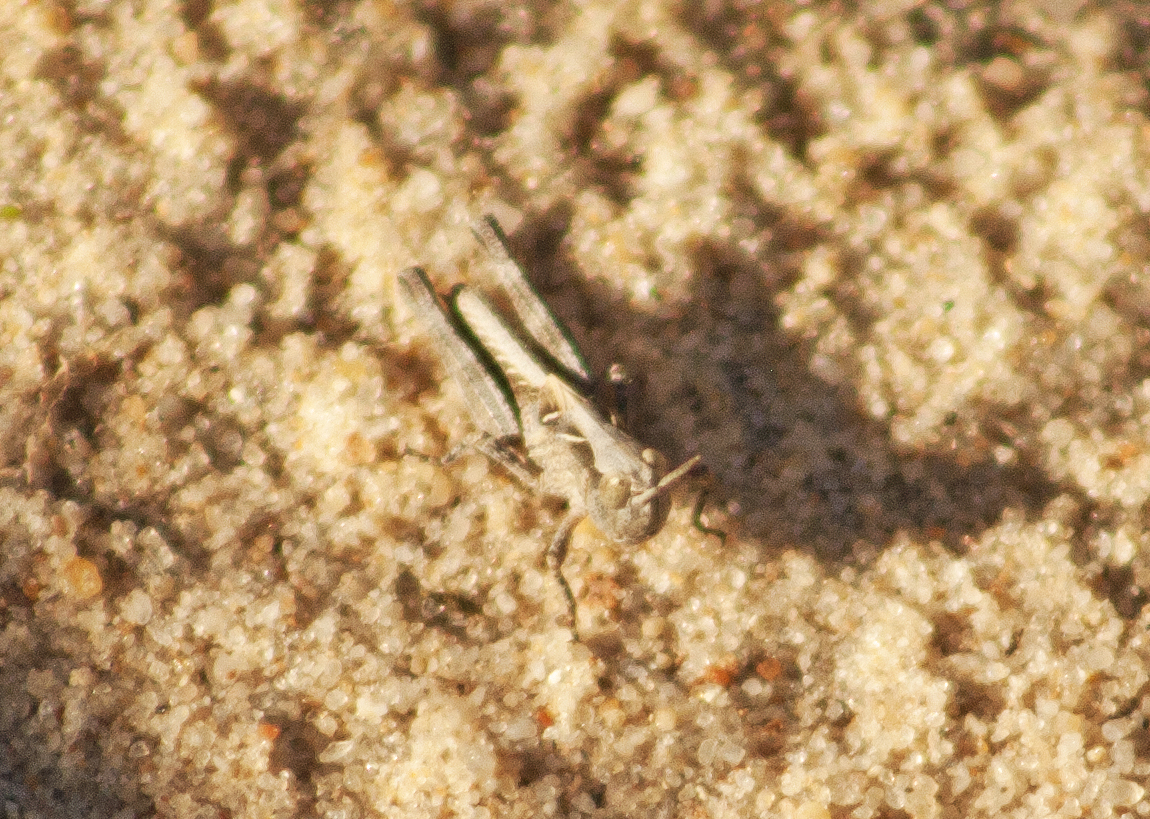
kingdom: Animalia
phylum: Arthropoda
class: Insecta
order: Orthoptera
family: Acrididae
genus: Chortoicetes
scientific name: Chortoicetes terminifera
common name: Australian plague locust
